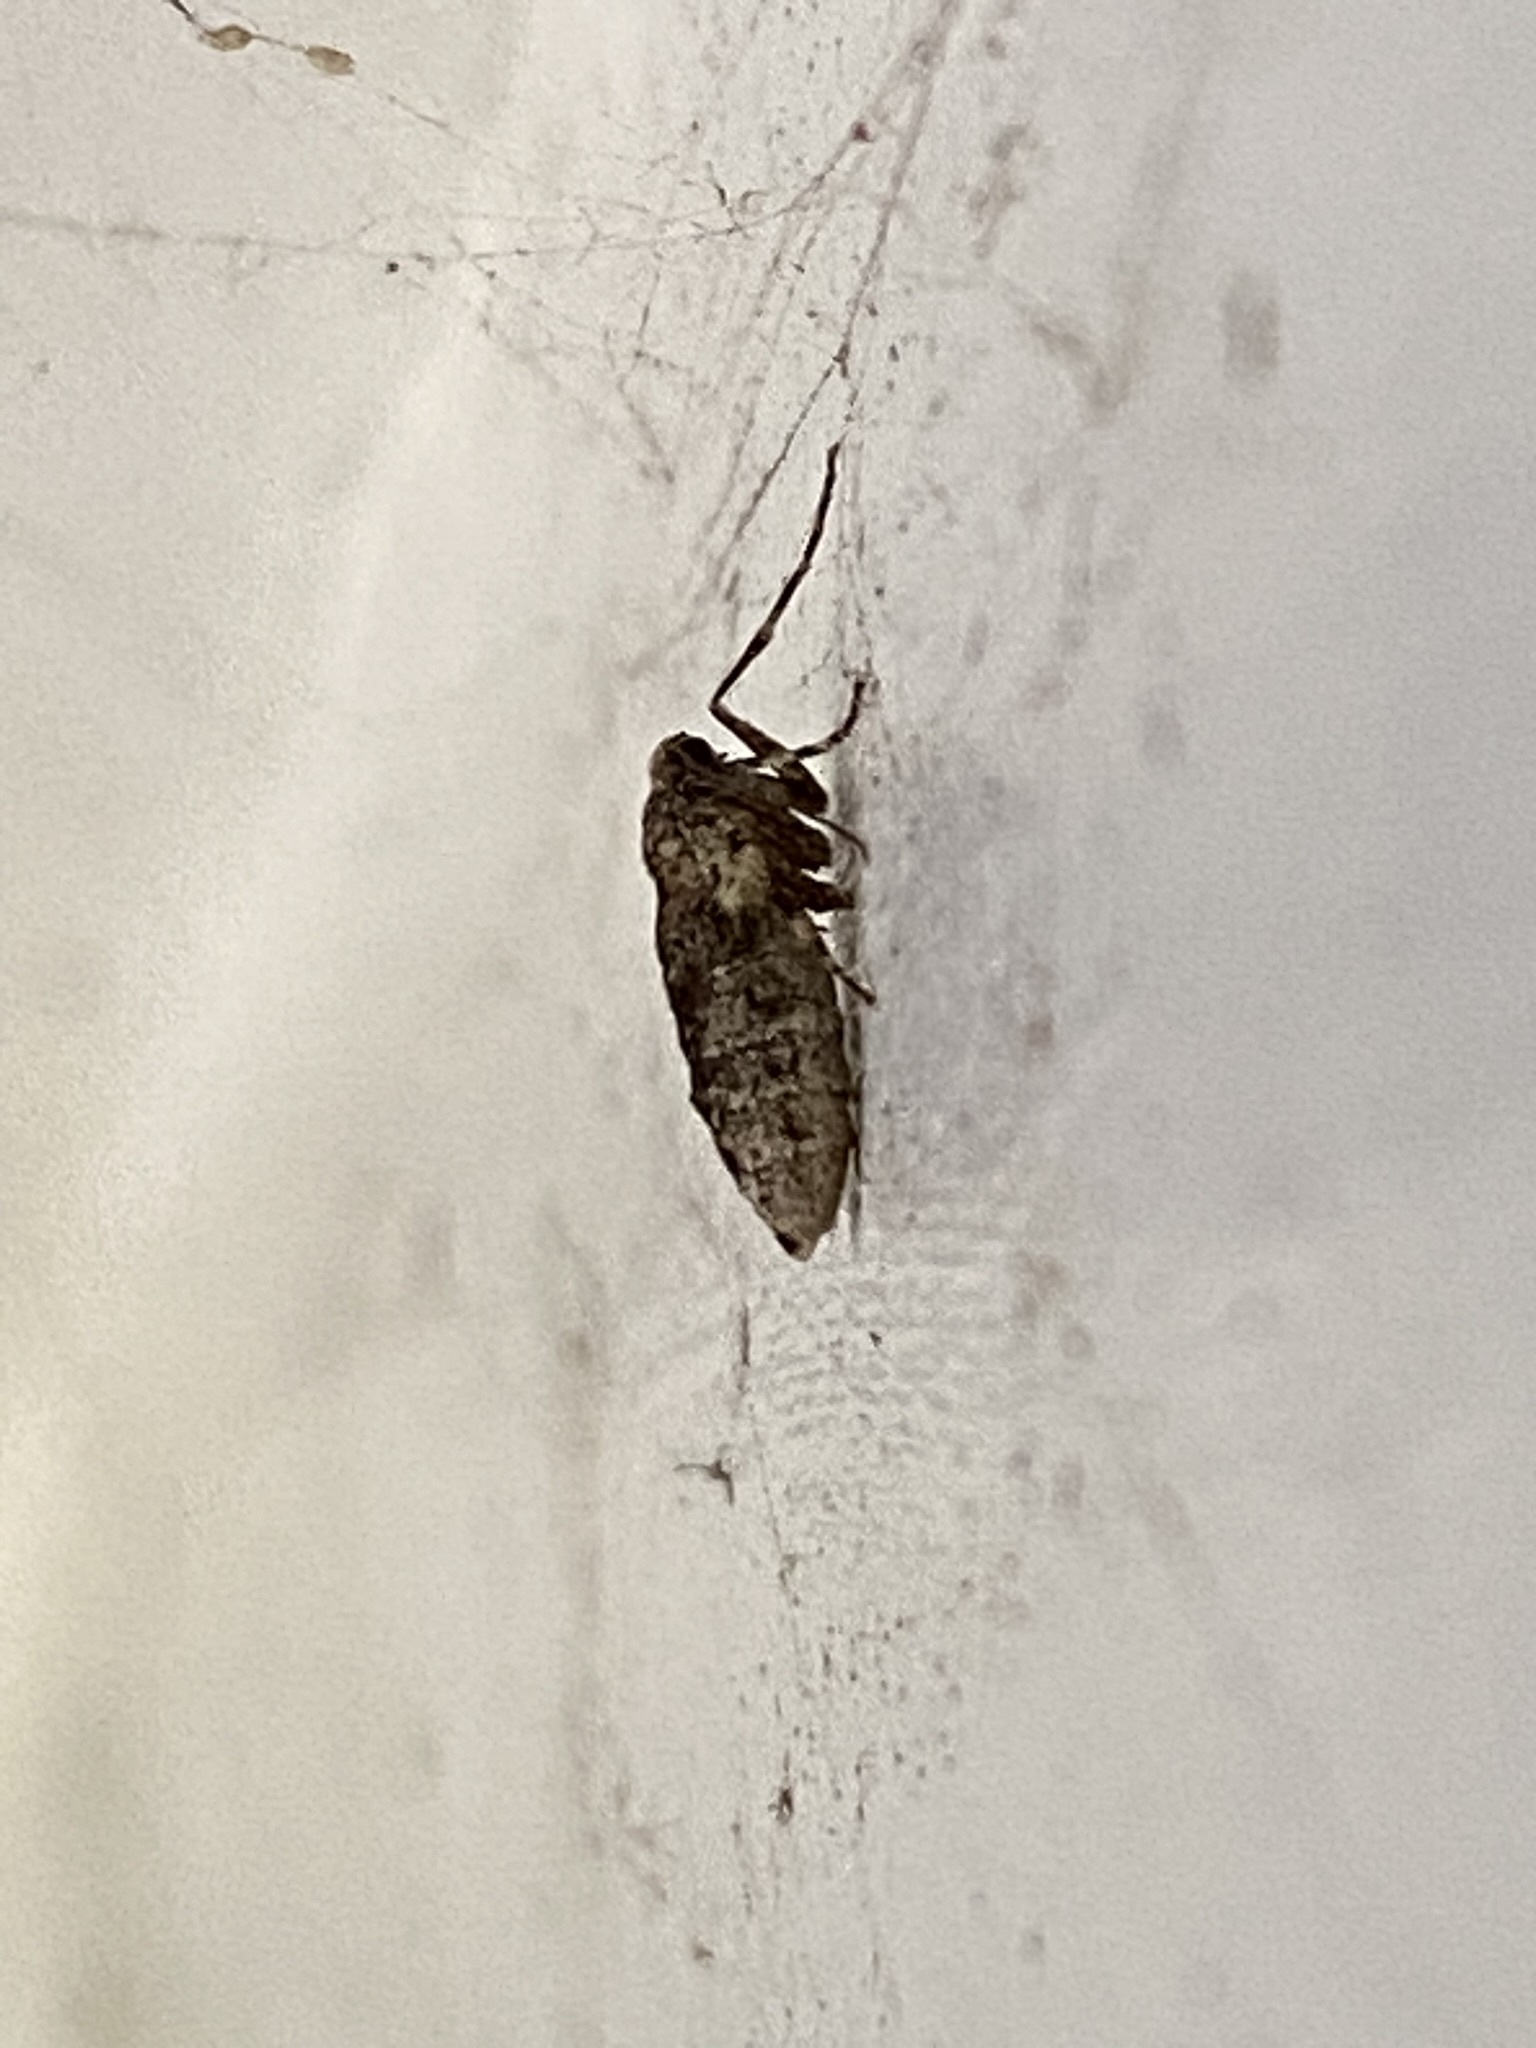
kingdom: Animalia
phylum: Arthropoda
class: Insecta
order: Lepidoptera
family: Geometridae
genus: Operophtera
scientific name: Operophtera brumata
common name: Winter moth
